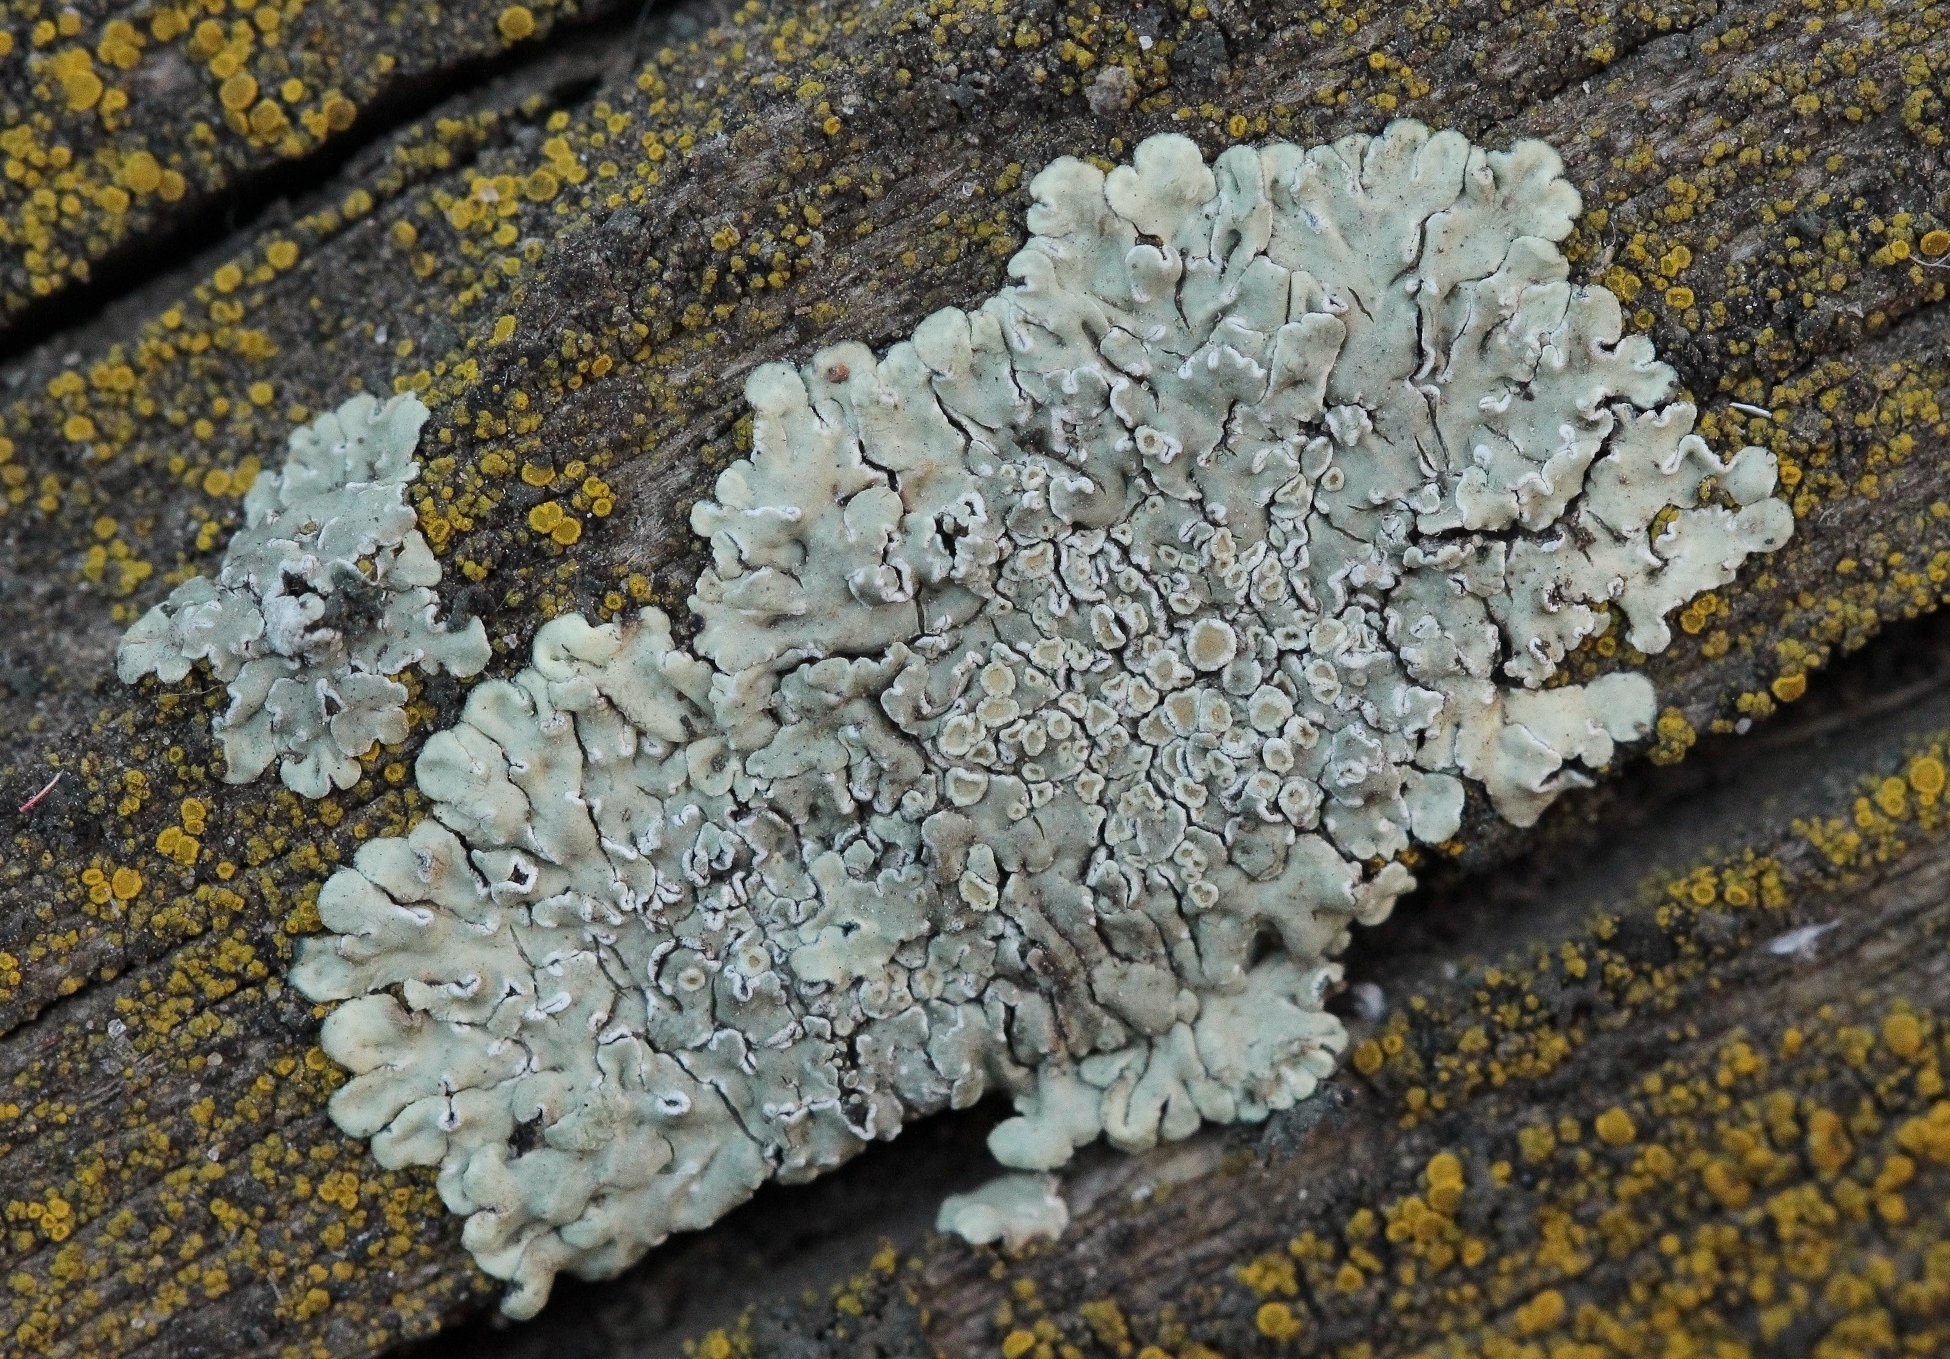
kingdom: Fungi
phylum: Ascomycota
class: Lecanoromycetes
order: Lecanorales
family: Lecanoraceae
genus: Protoparmeliopsis
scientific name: Protoparmeliopsis muralis
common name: Stonewall rim lichen
